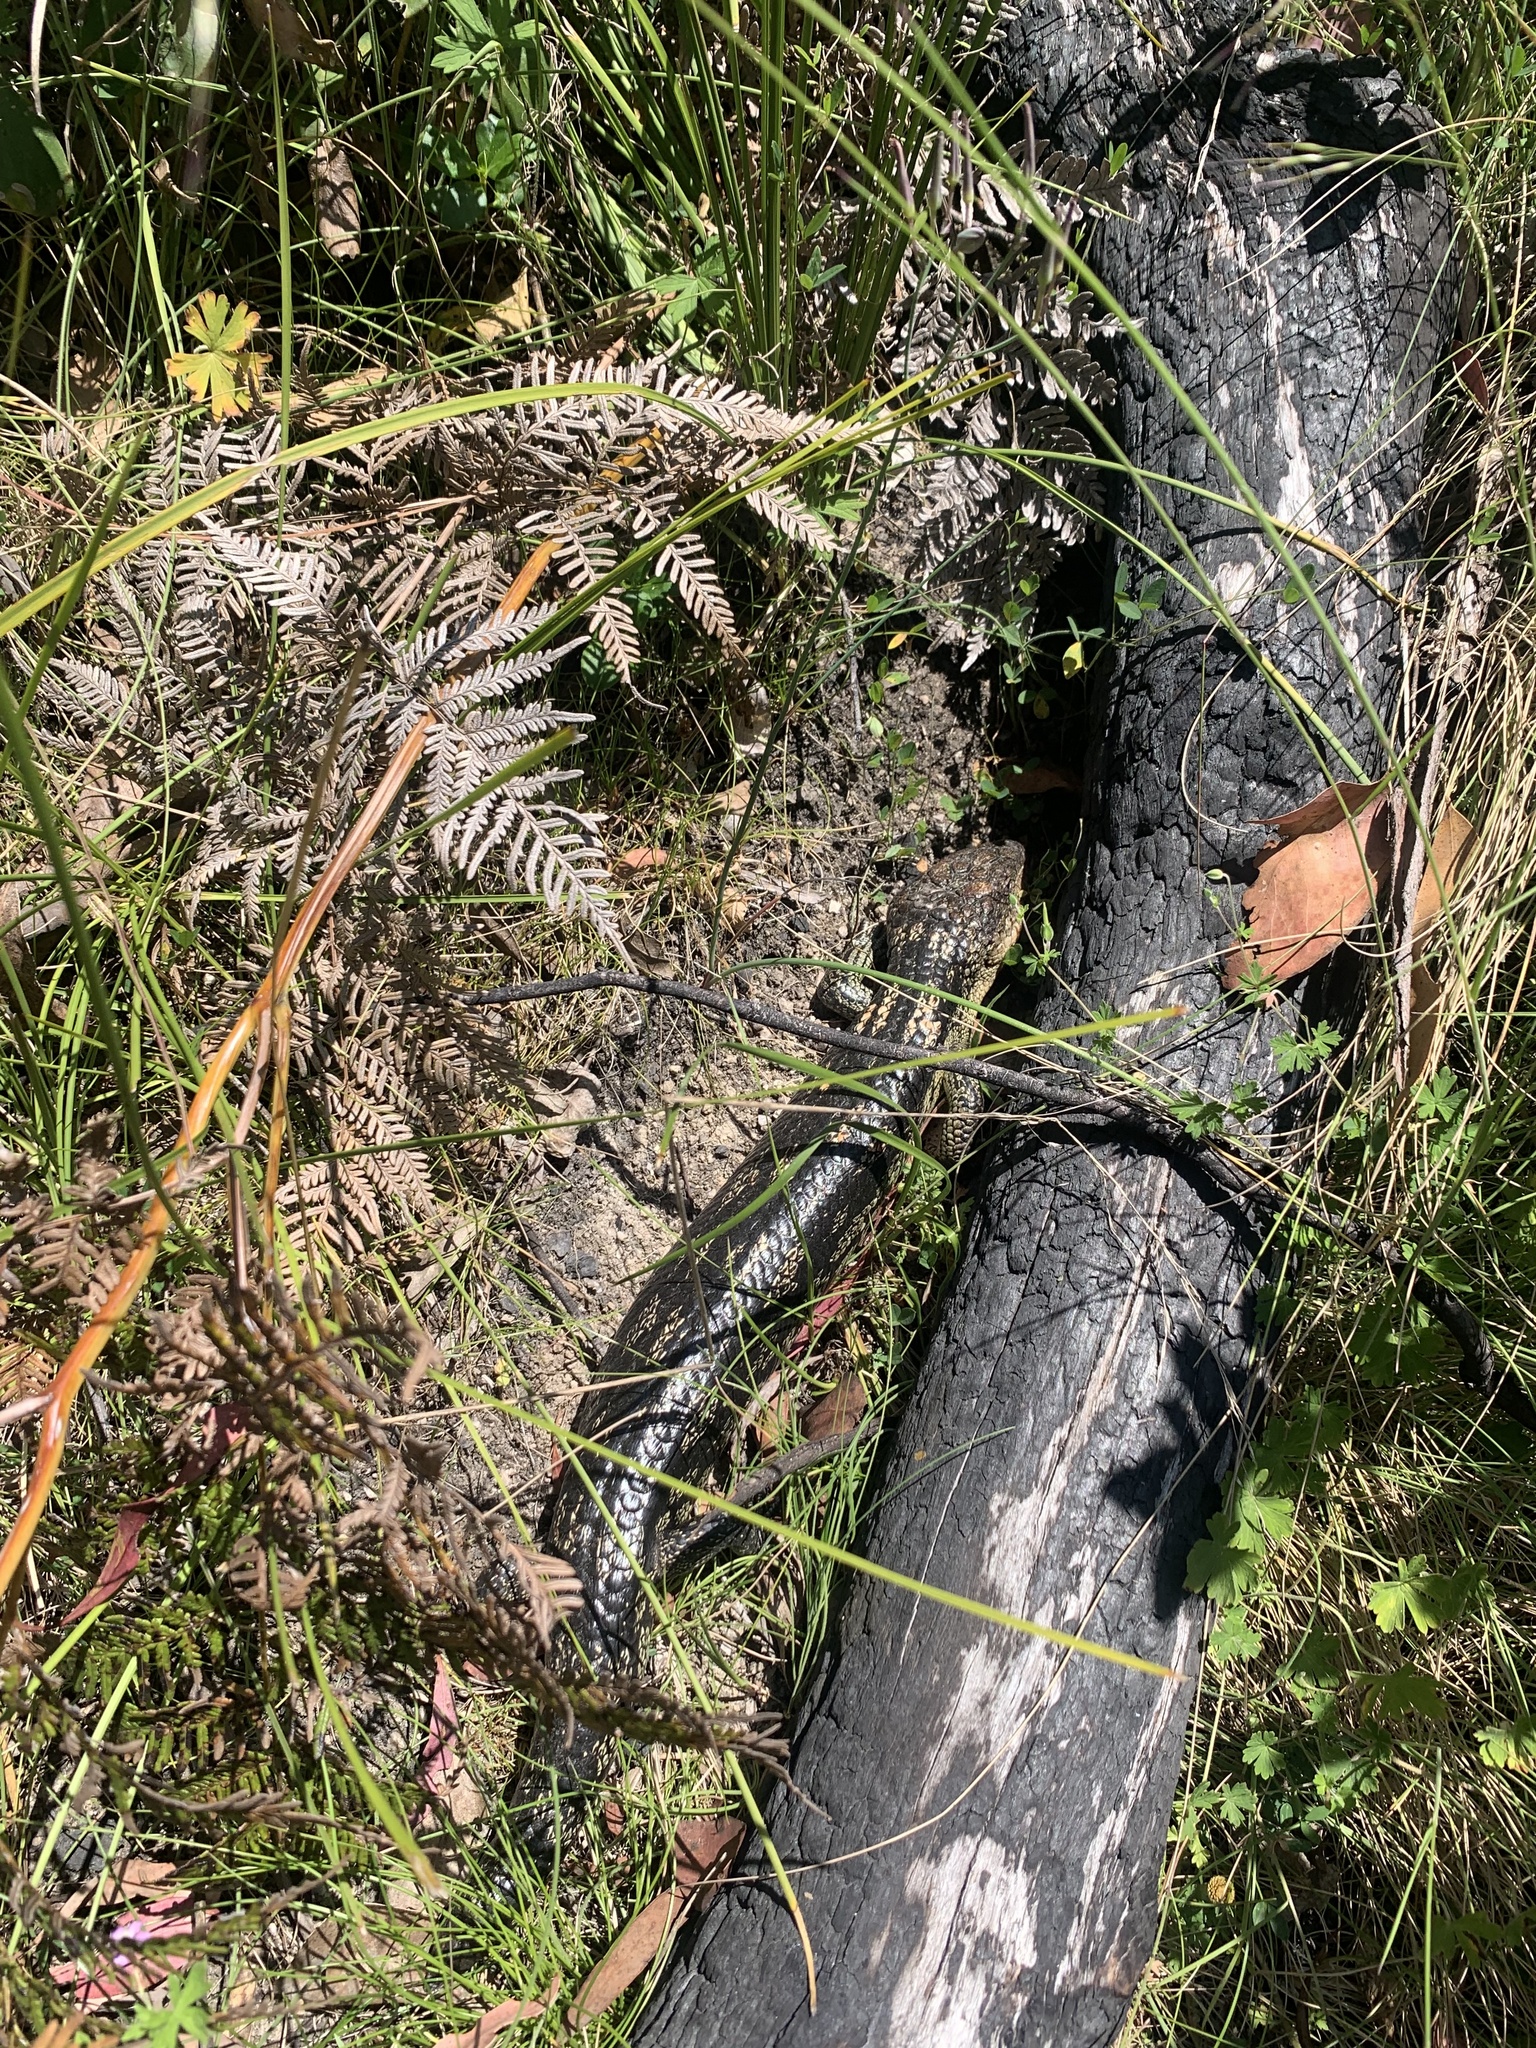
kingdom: Animalia
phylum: Chordata
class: Squamata
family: Scincidae
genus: Tiliqua
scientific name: Tiliqua nigrolutea
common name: Blotched blue-tongued lizard
